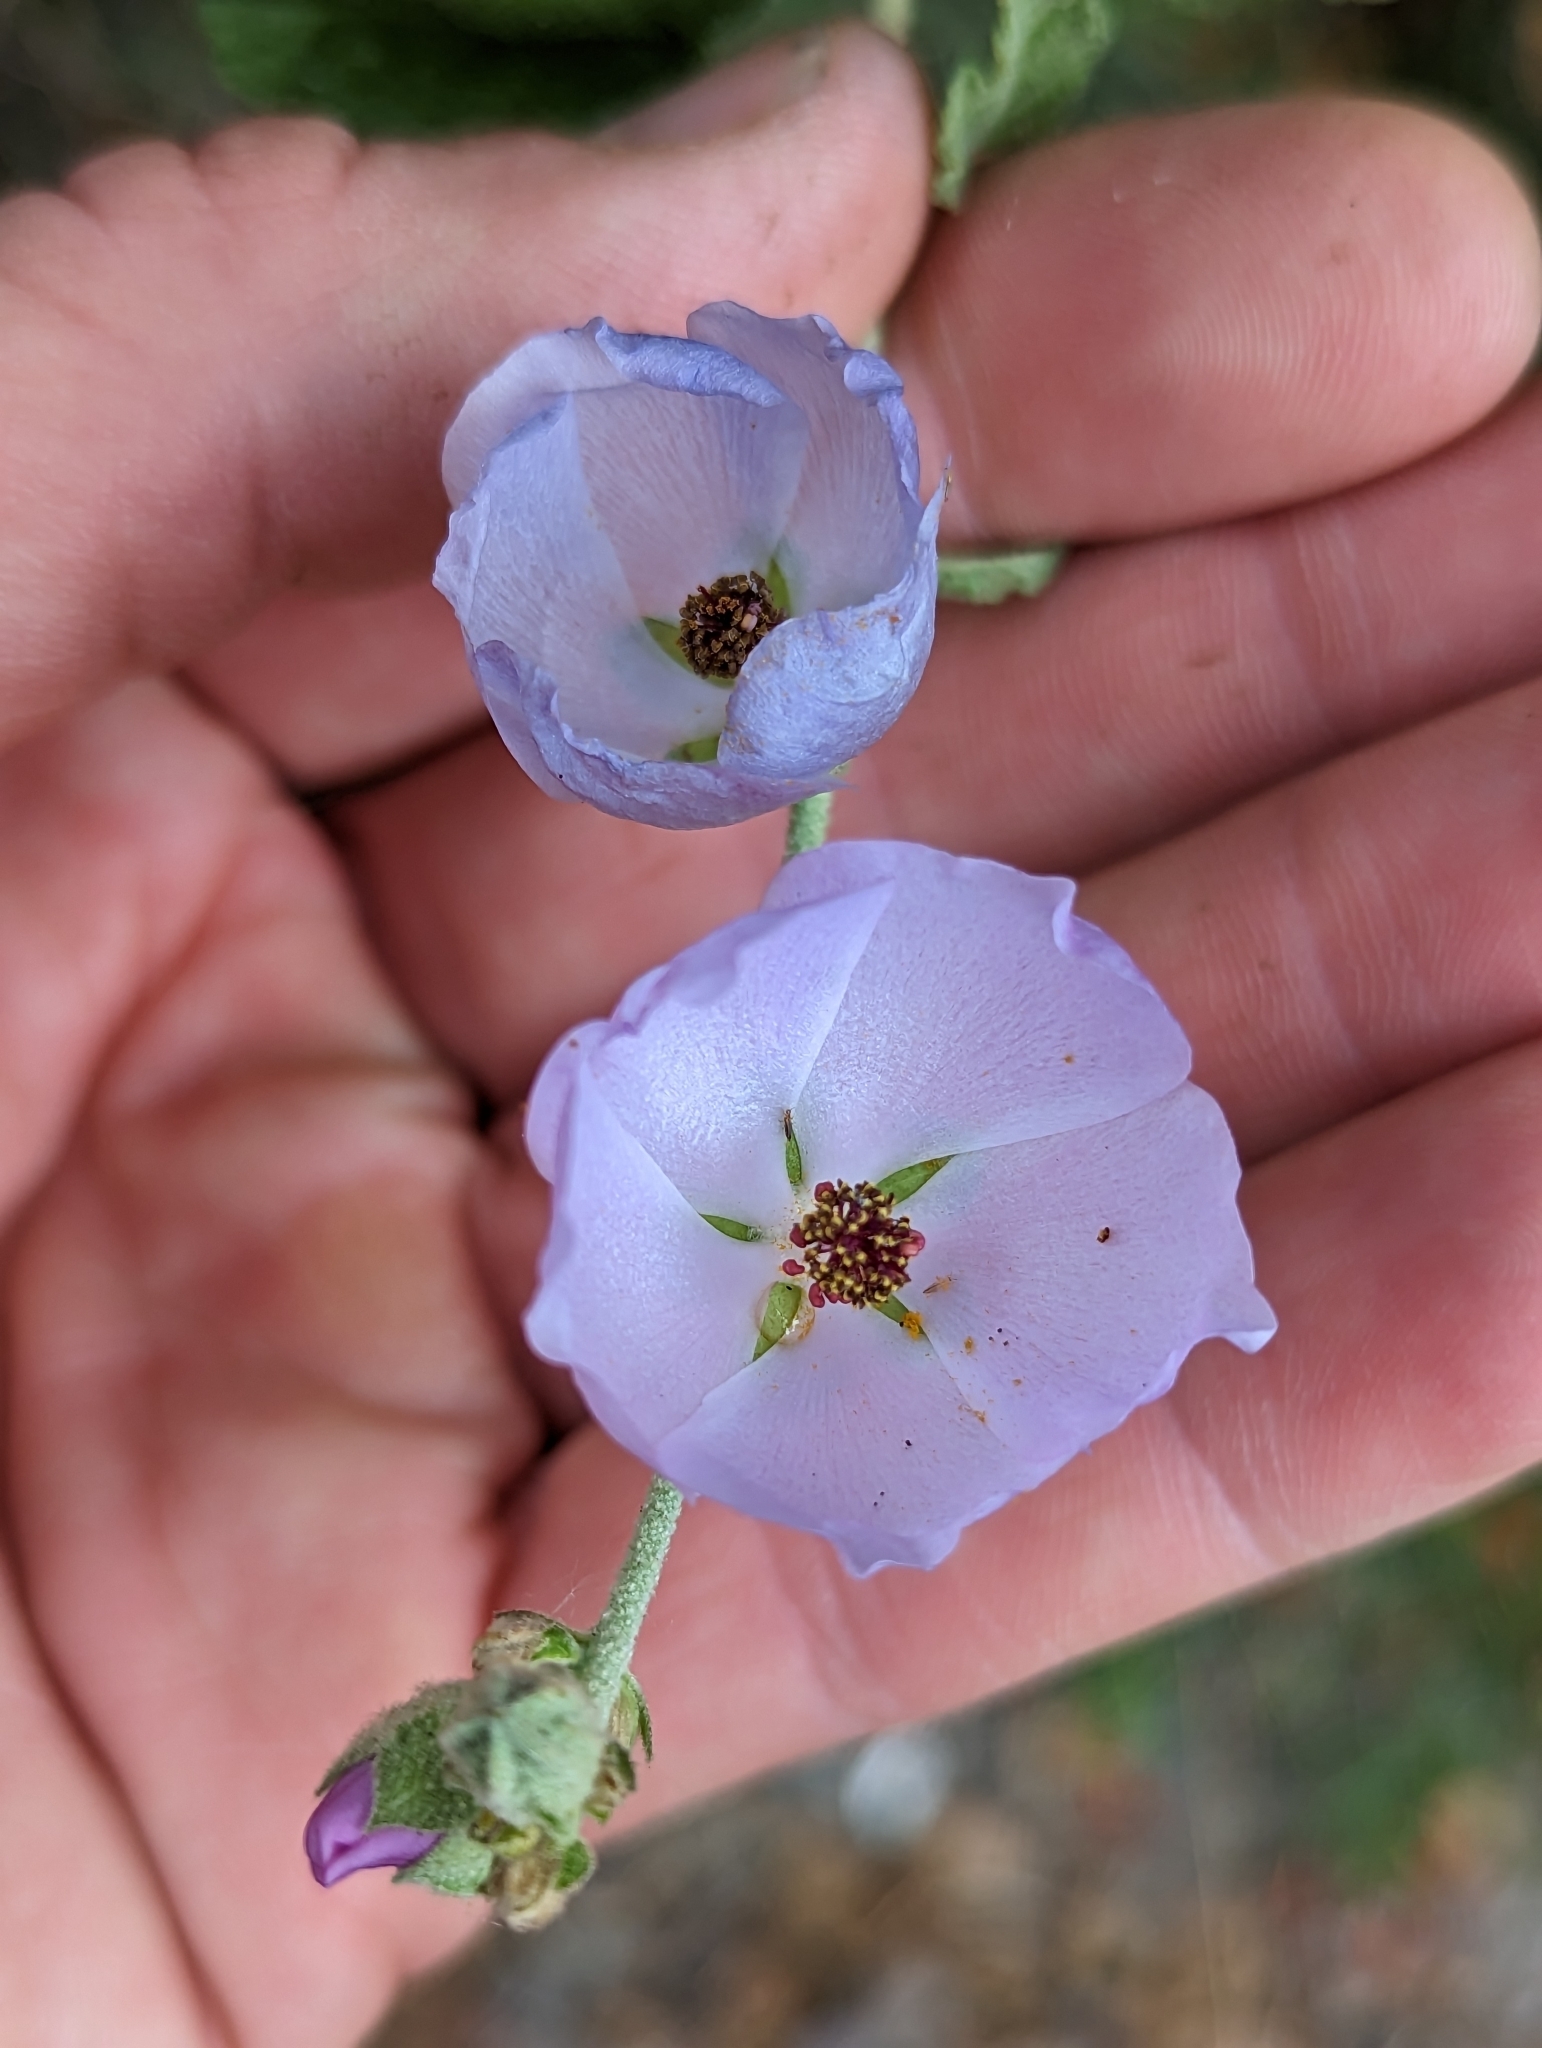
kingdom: Plantae
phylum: Tracheophyta
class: Magnoliopsida
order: Malvales
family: Malvaceae
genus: Malacothamnus
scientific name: Malacothamnus fasciculatus
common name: Sant cruz island bush-mallow
